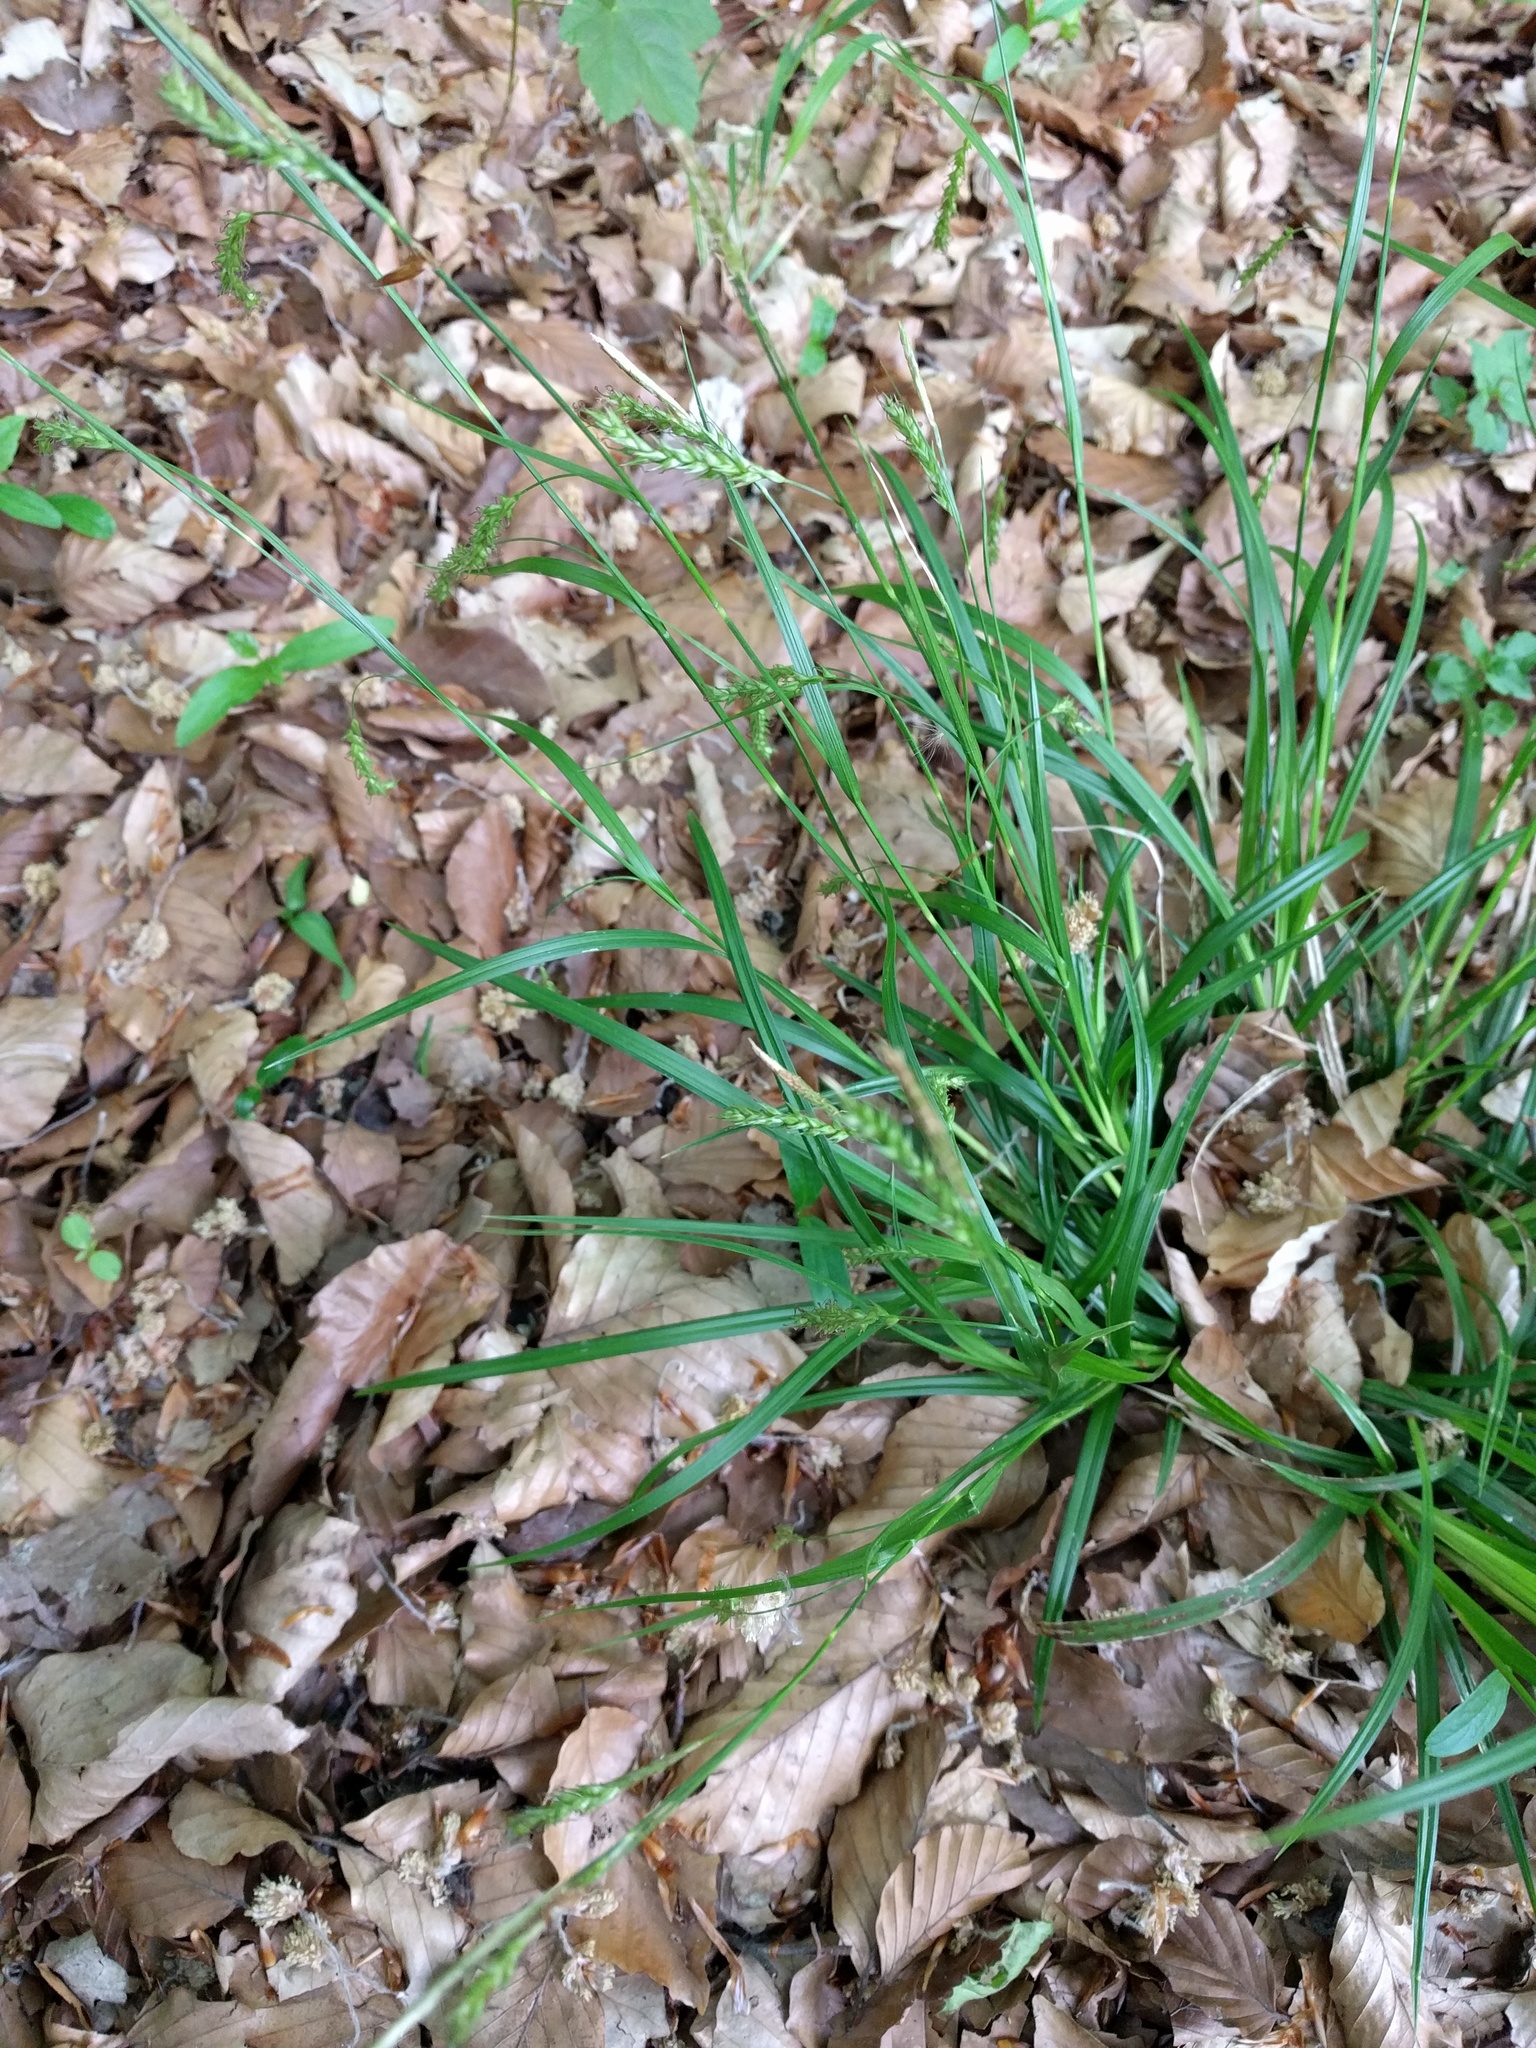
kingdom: Plantae
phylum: Tracheophyta
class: Liliopsida
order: Poales
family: Cyperaceae
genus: Carex
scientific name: Carex sylvatica
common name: Wood-sedge
